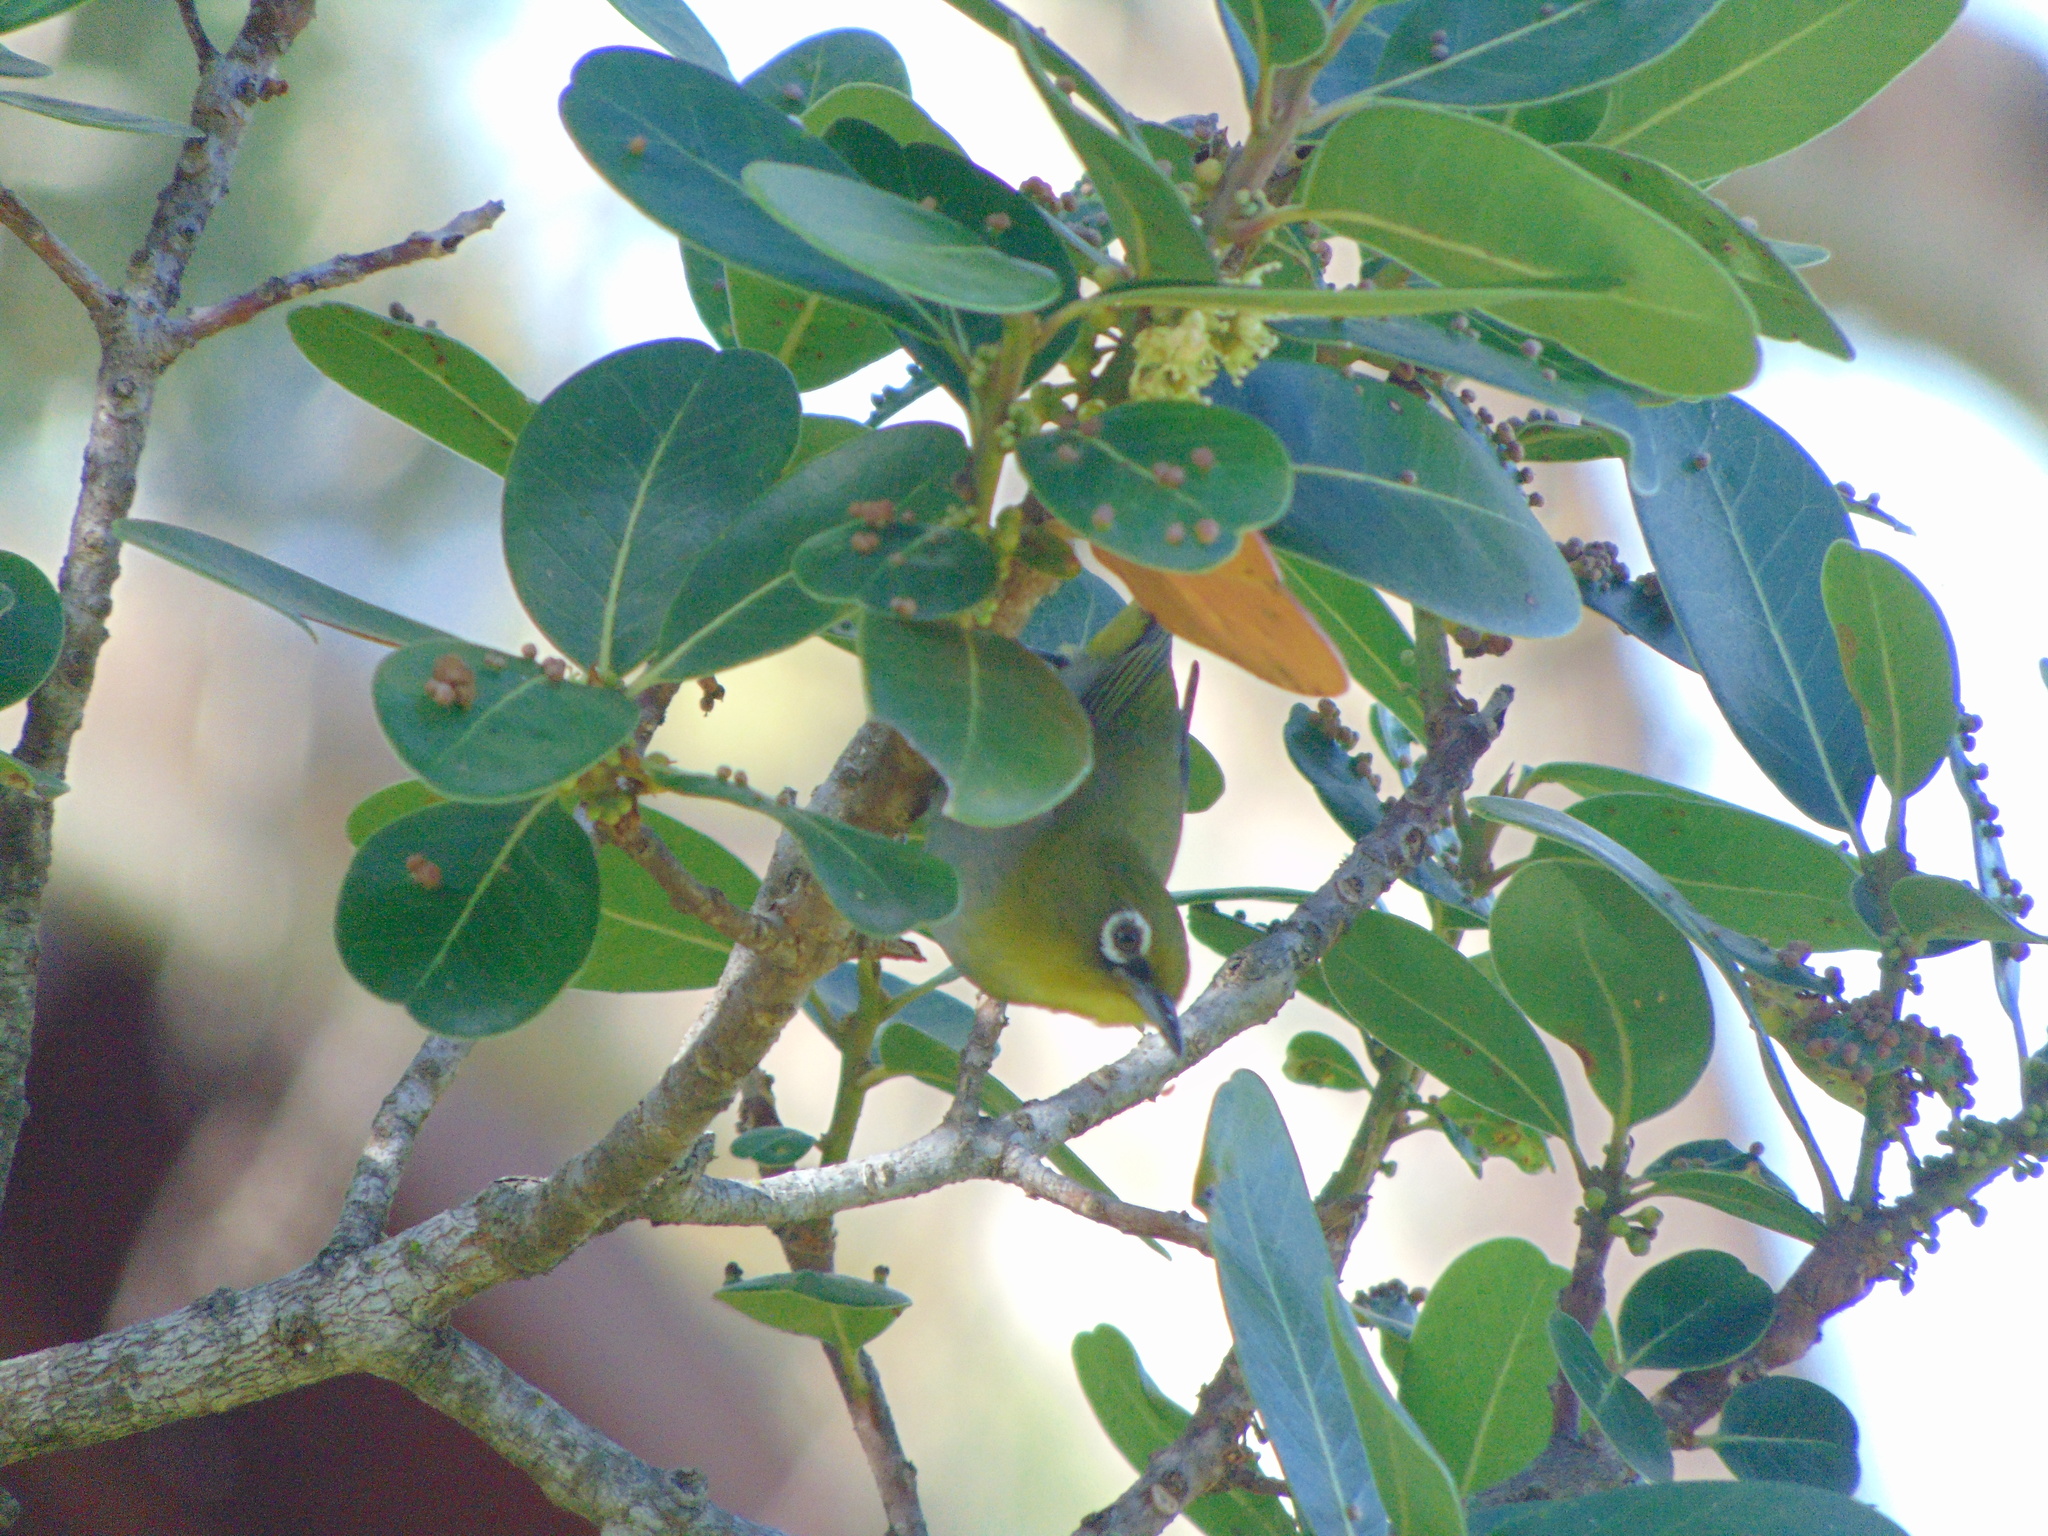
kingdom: Animalia
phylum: Chordata
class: Aves
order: Passeriformes
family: Zosteropidae
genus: Zosterops
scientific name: Zosterops virens
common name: Cape white-eye
